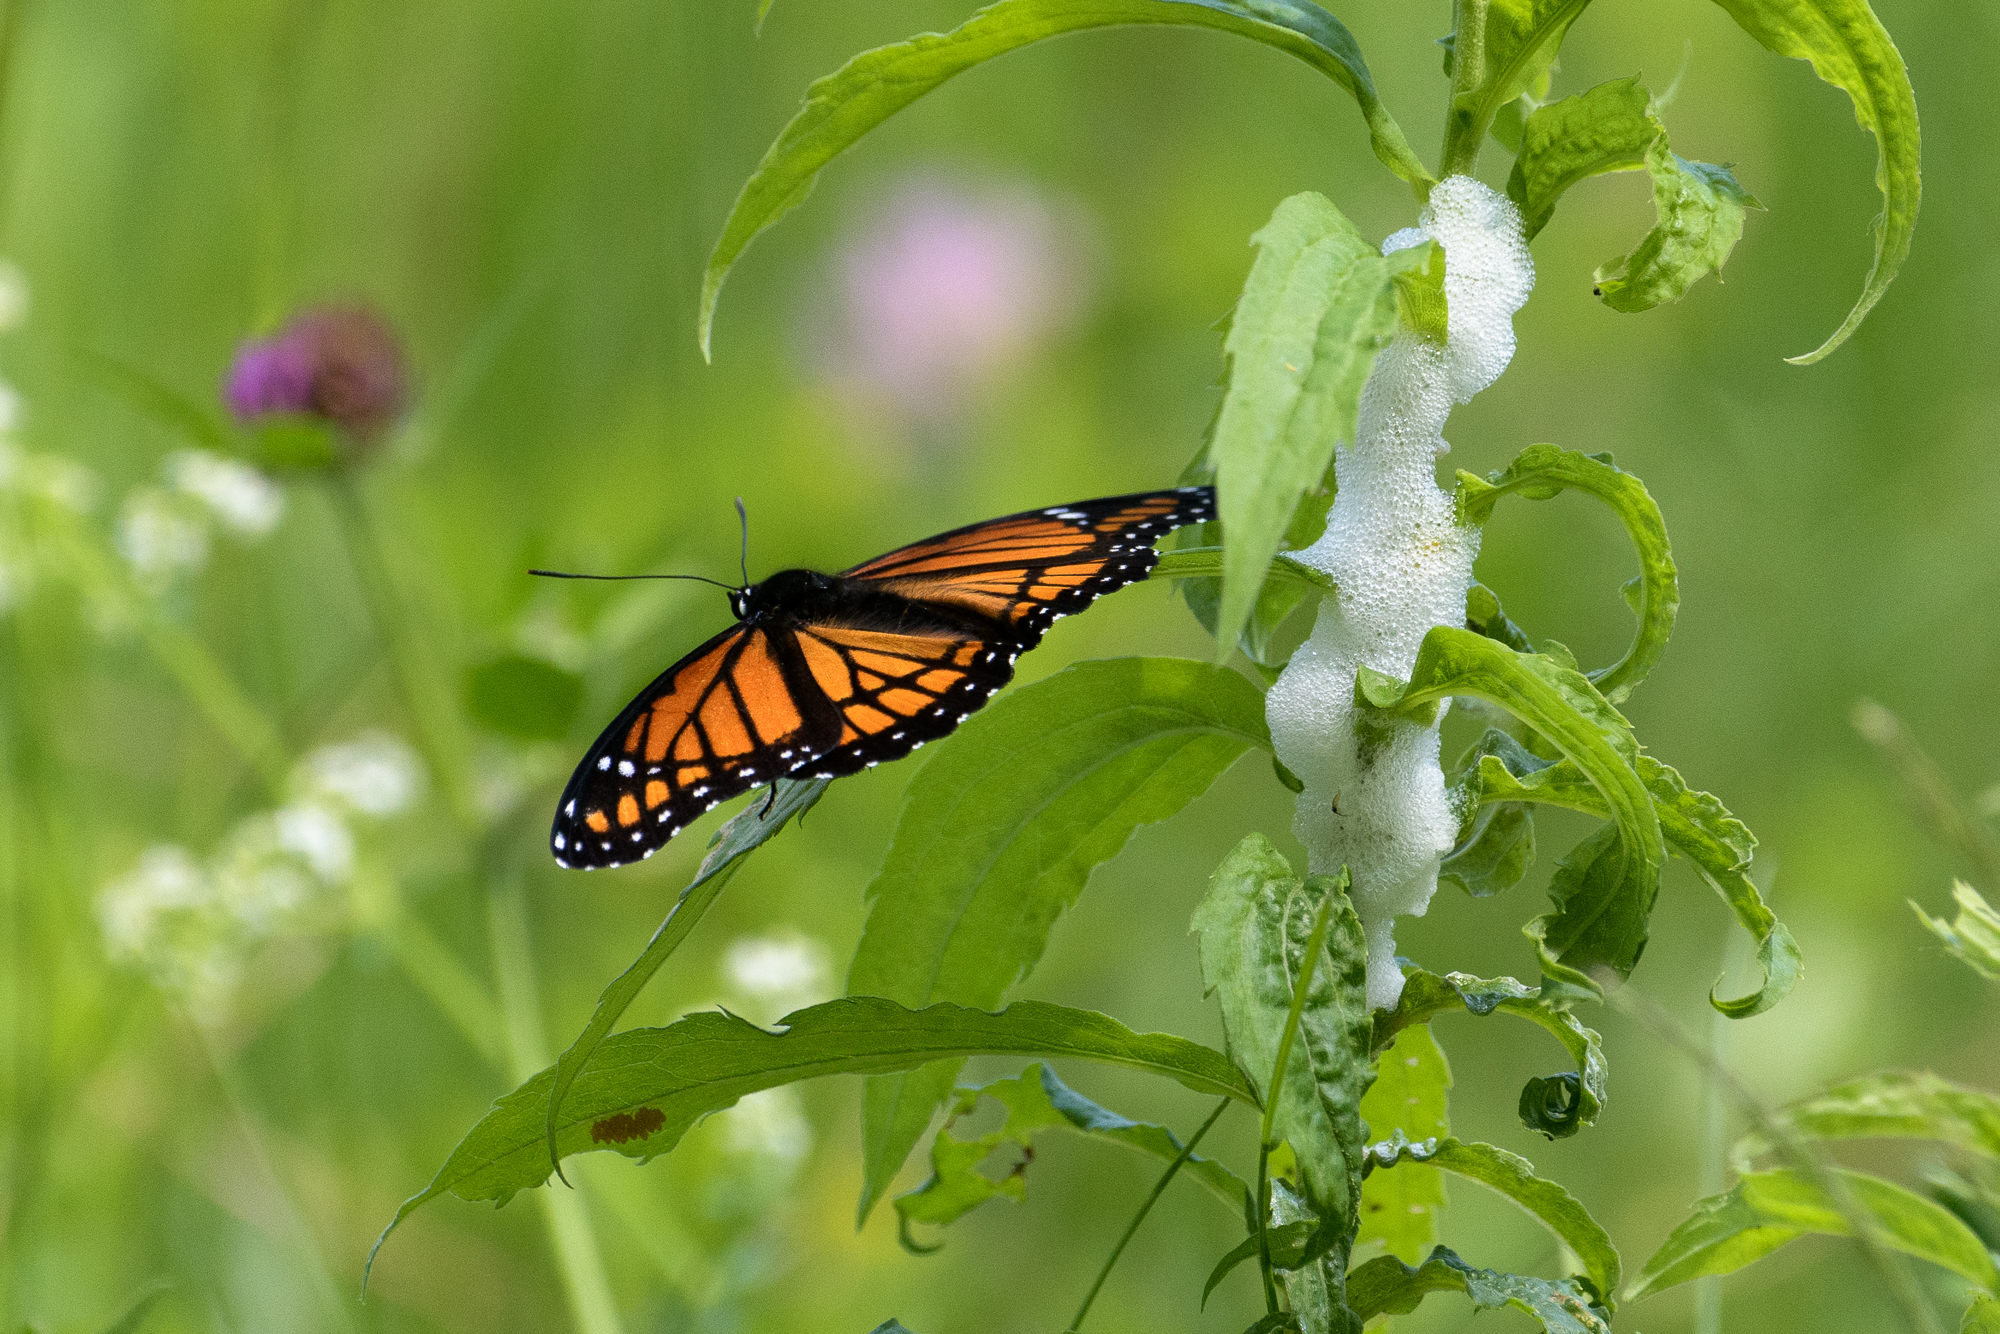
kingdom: Animalia
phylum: Arthropoda
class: Insecta
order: Lepidoptera
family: Nymphalidae
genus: Limenitis
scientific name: Limenitis archippus
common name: Viceroy
